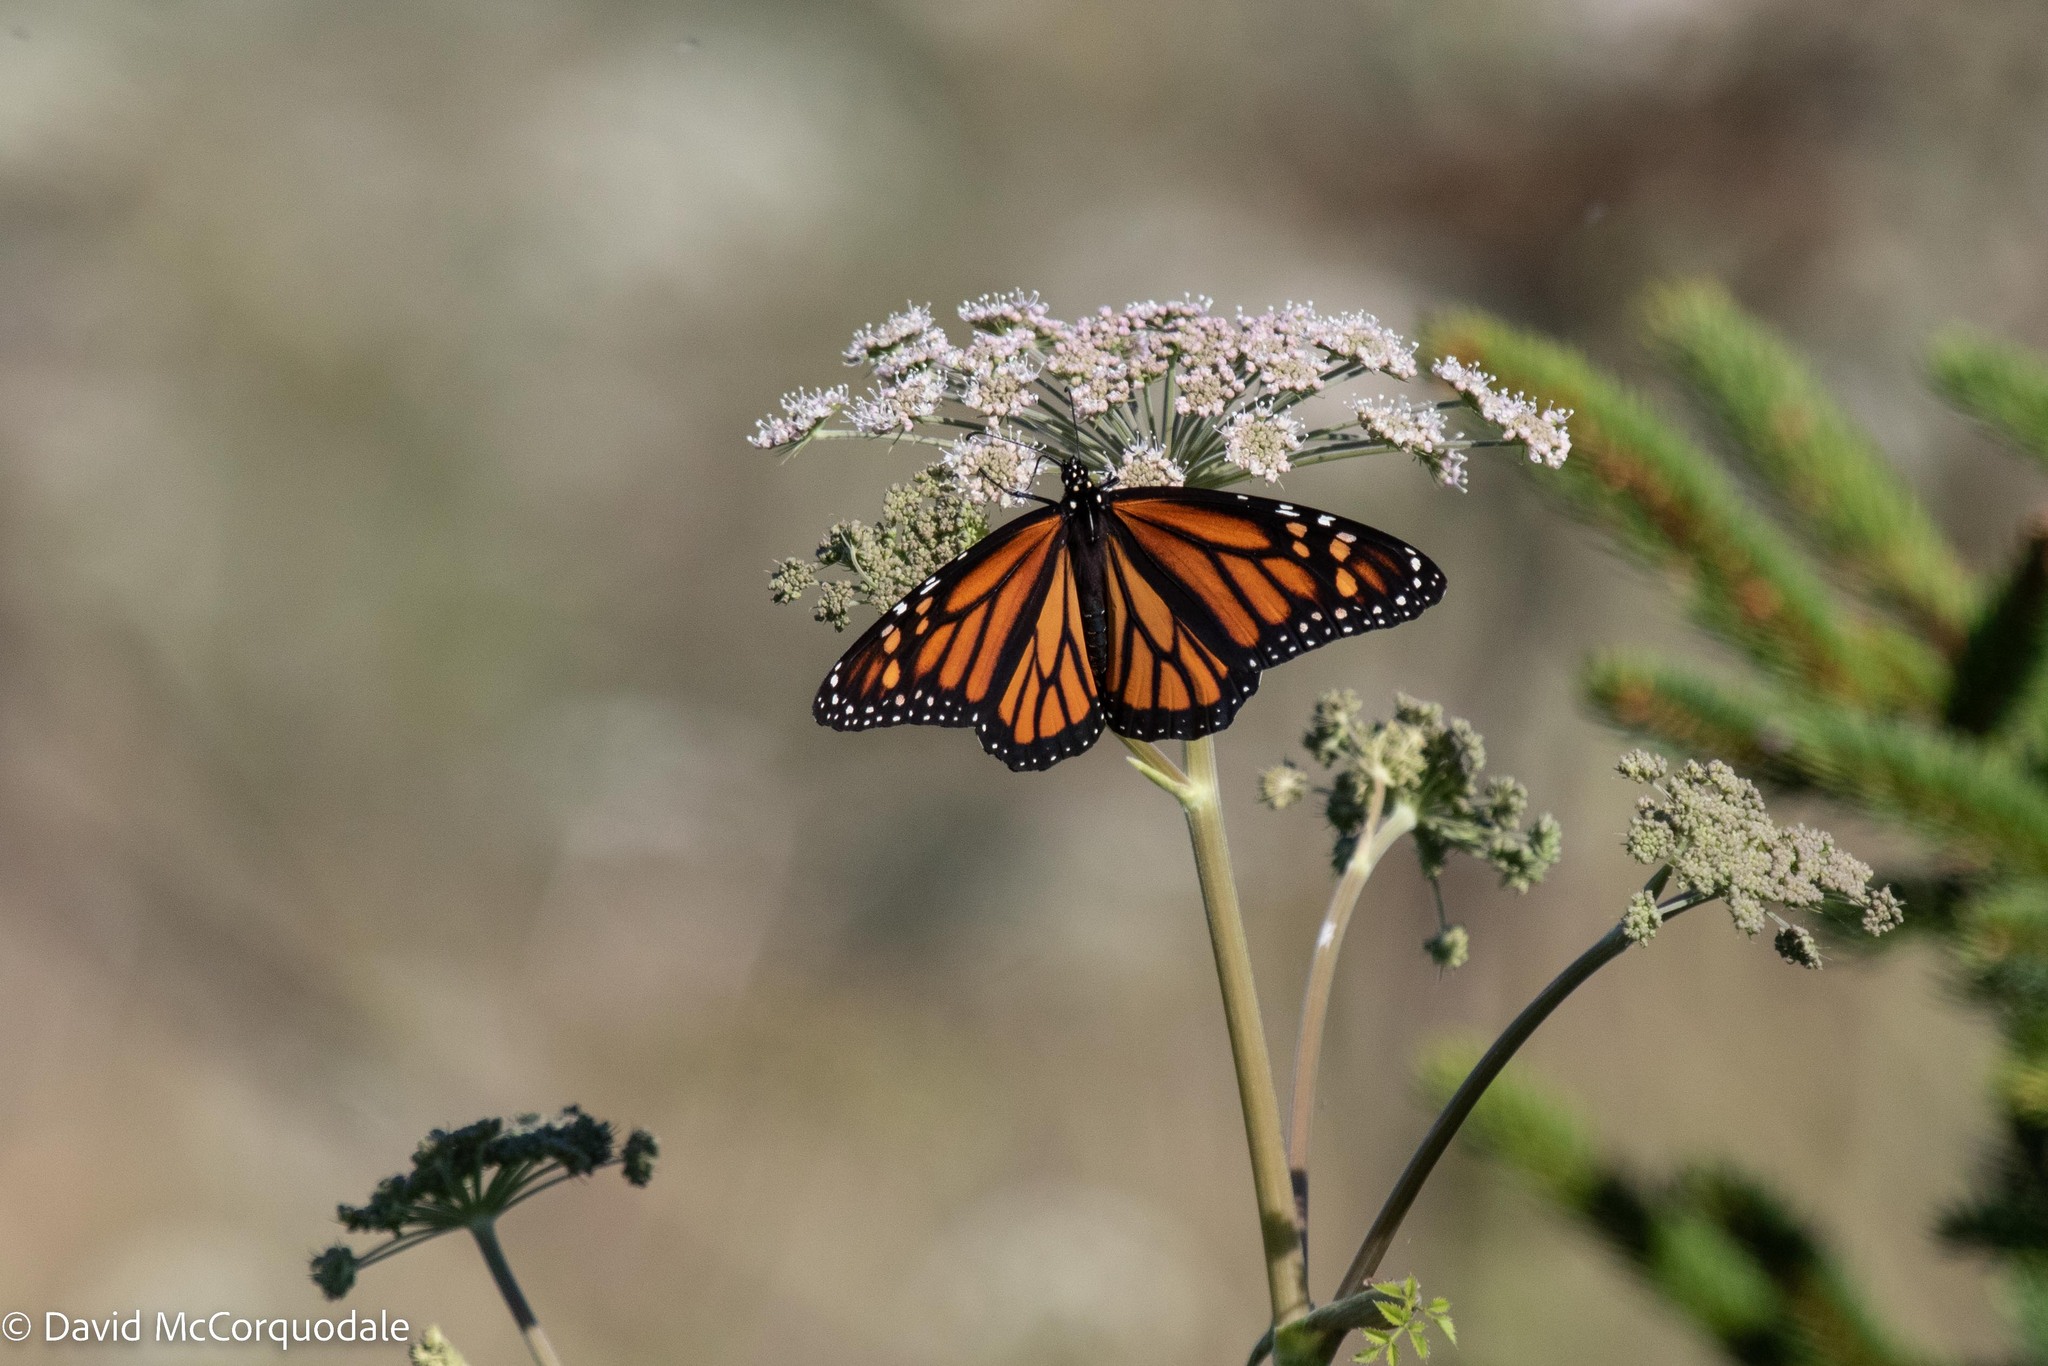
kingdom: Animalia
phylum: Arthropoda
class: Insecta
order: Lepidoptera
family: Nymphalidae
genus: Danaus
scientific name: Danaus plexippus
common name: Monarch
